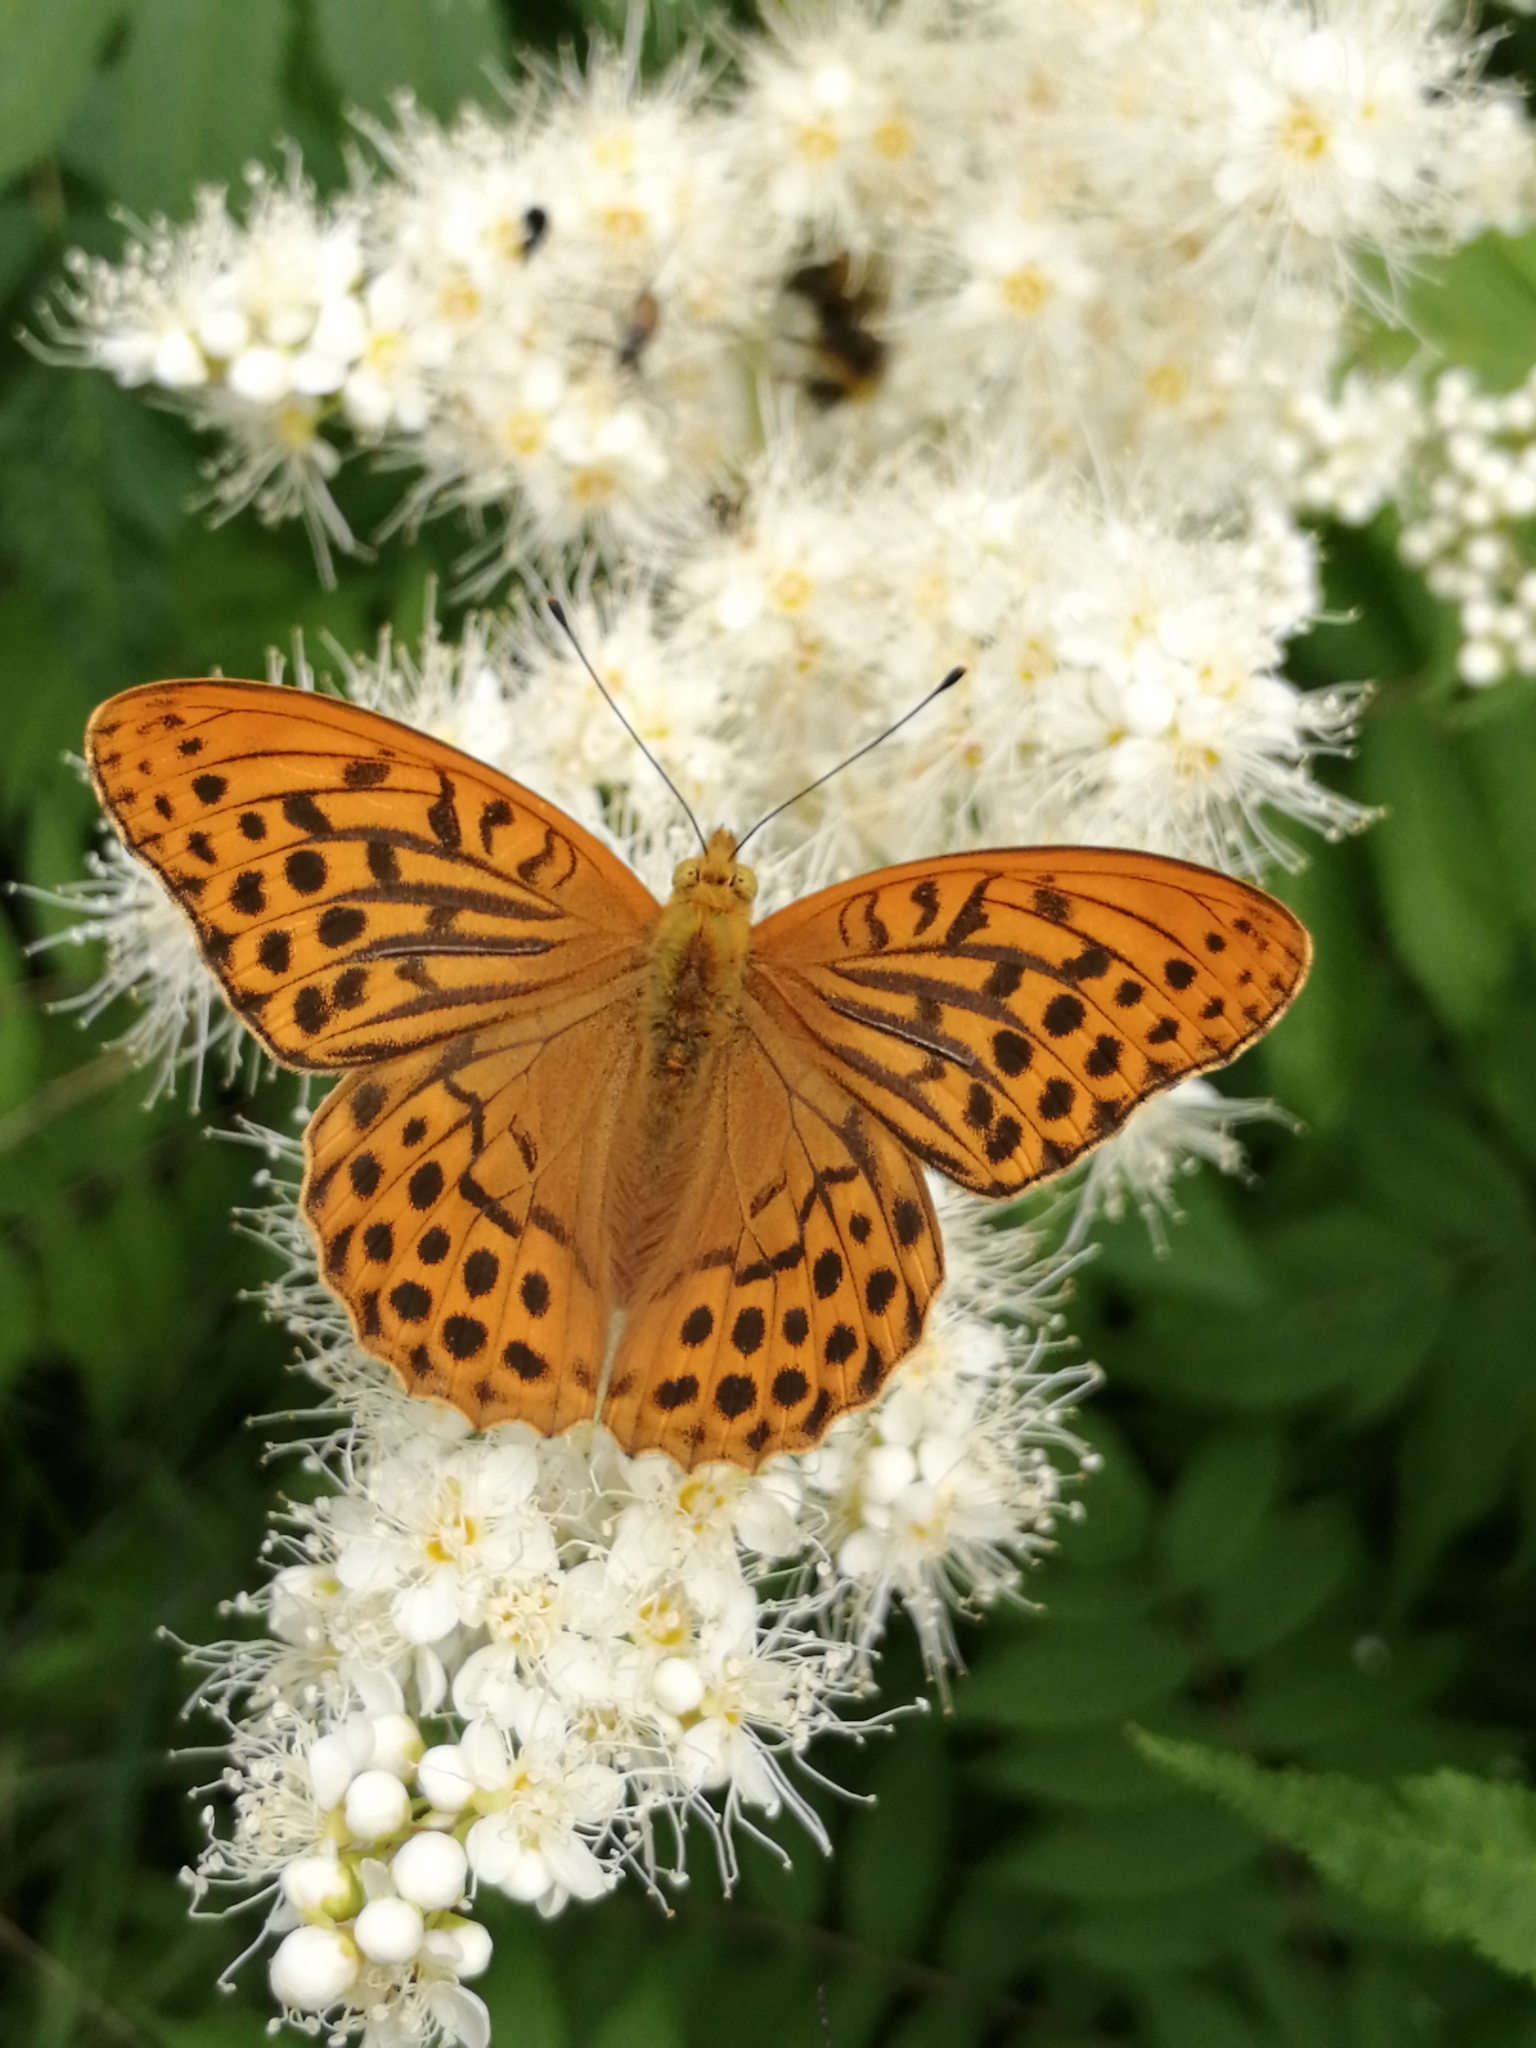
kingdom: Animalia
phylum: Arthropoda
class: Insecta
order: Lepidoptera
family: Nymphalidae
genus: Argynnis
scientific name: Argynnis paphia
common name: Silver-washed fritillary
